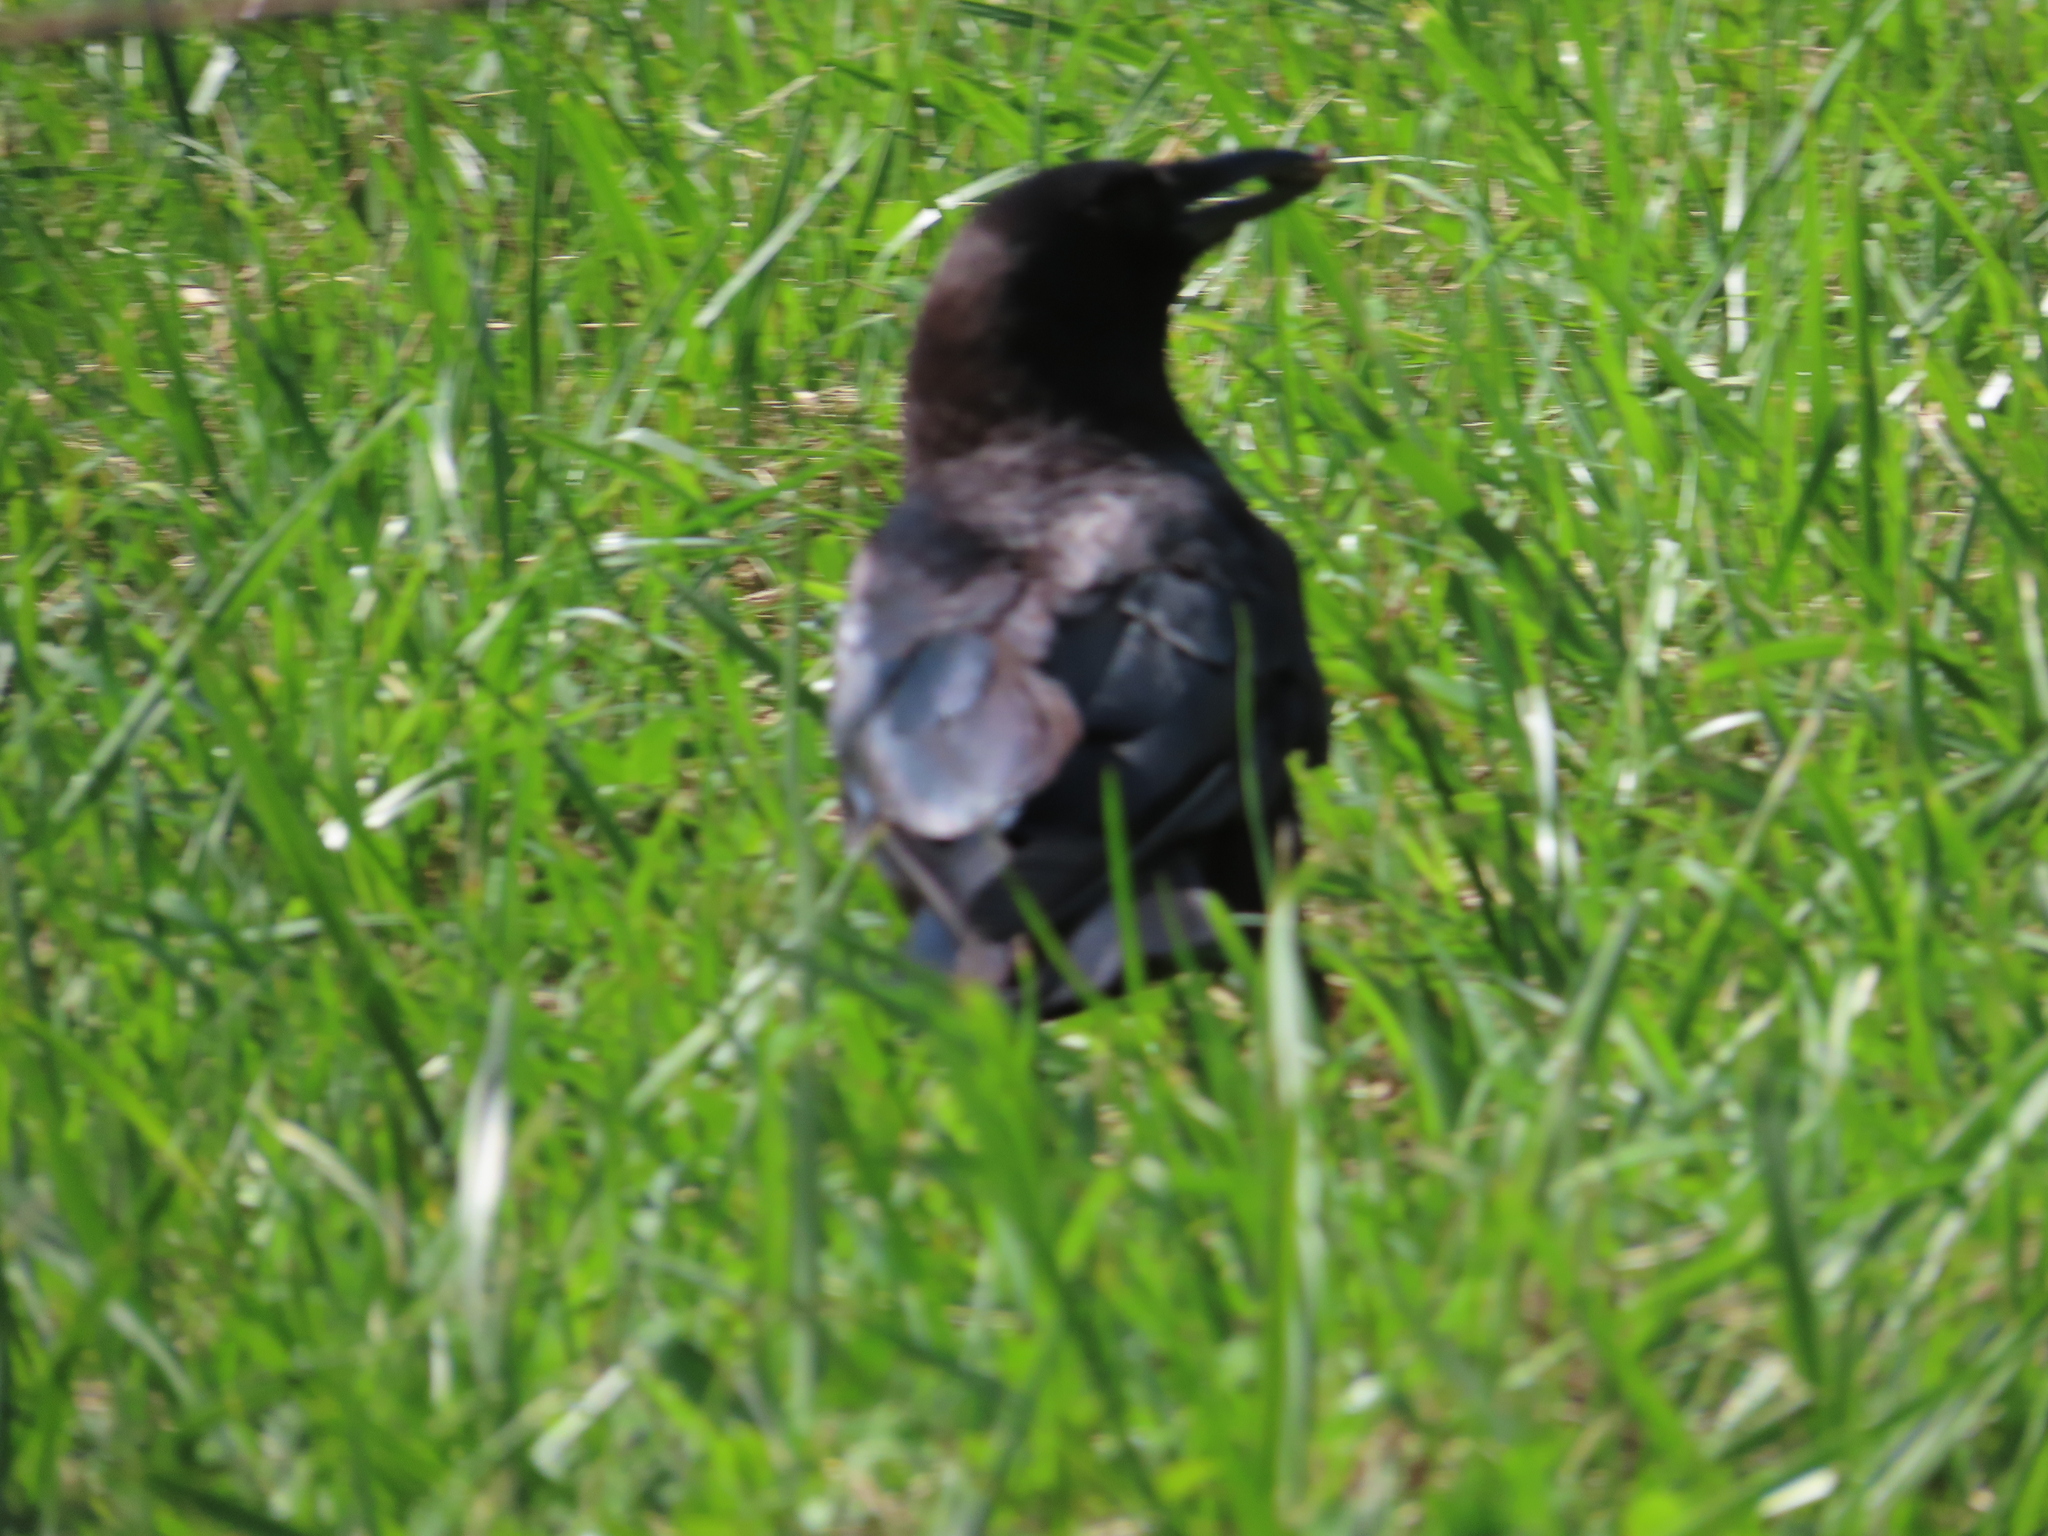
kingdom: Animalia
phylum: Chordata
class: Aves
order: Passeriformes
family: Corvidae
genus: Corvus
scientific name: Corvus brachyrhynchos
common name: American crow
